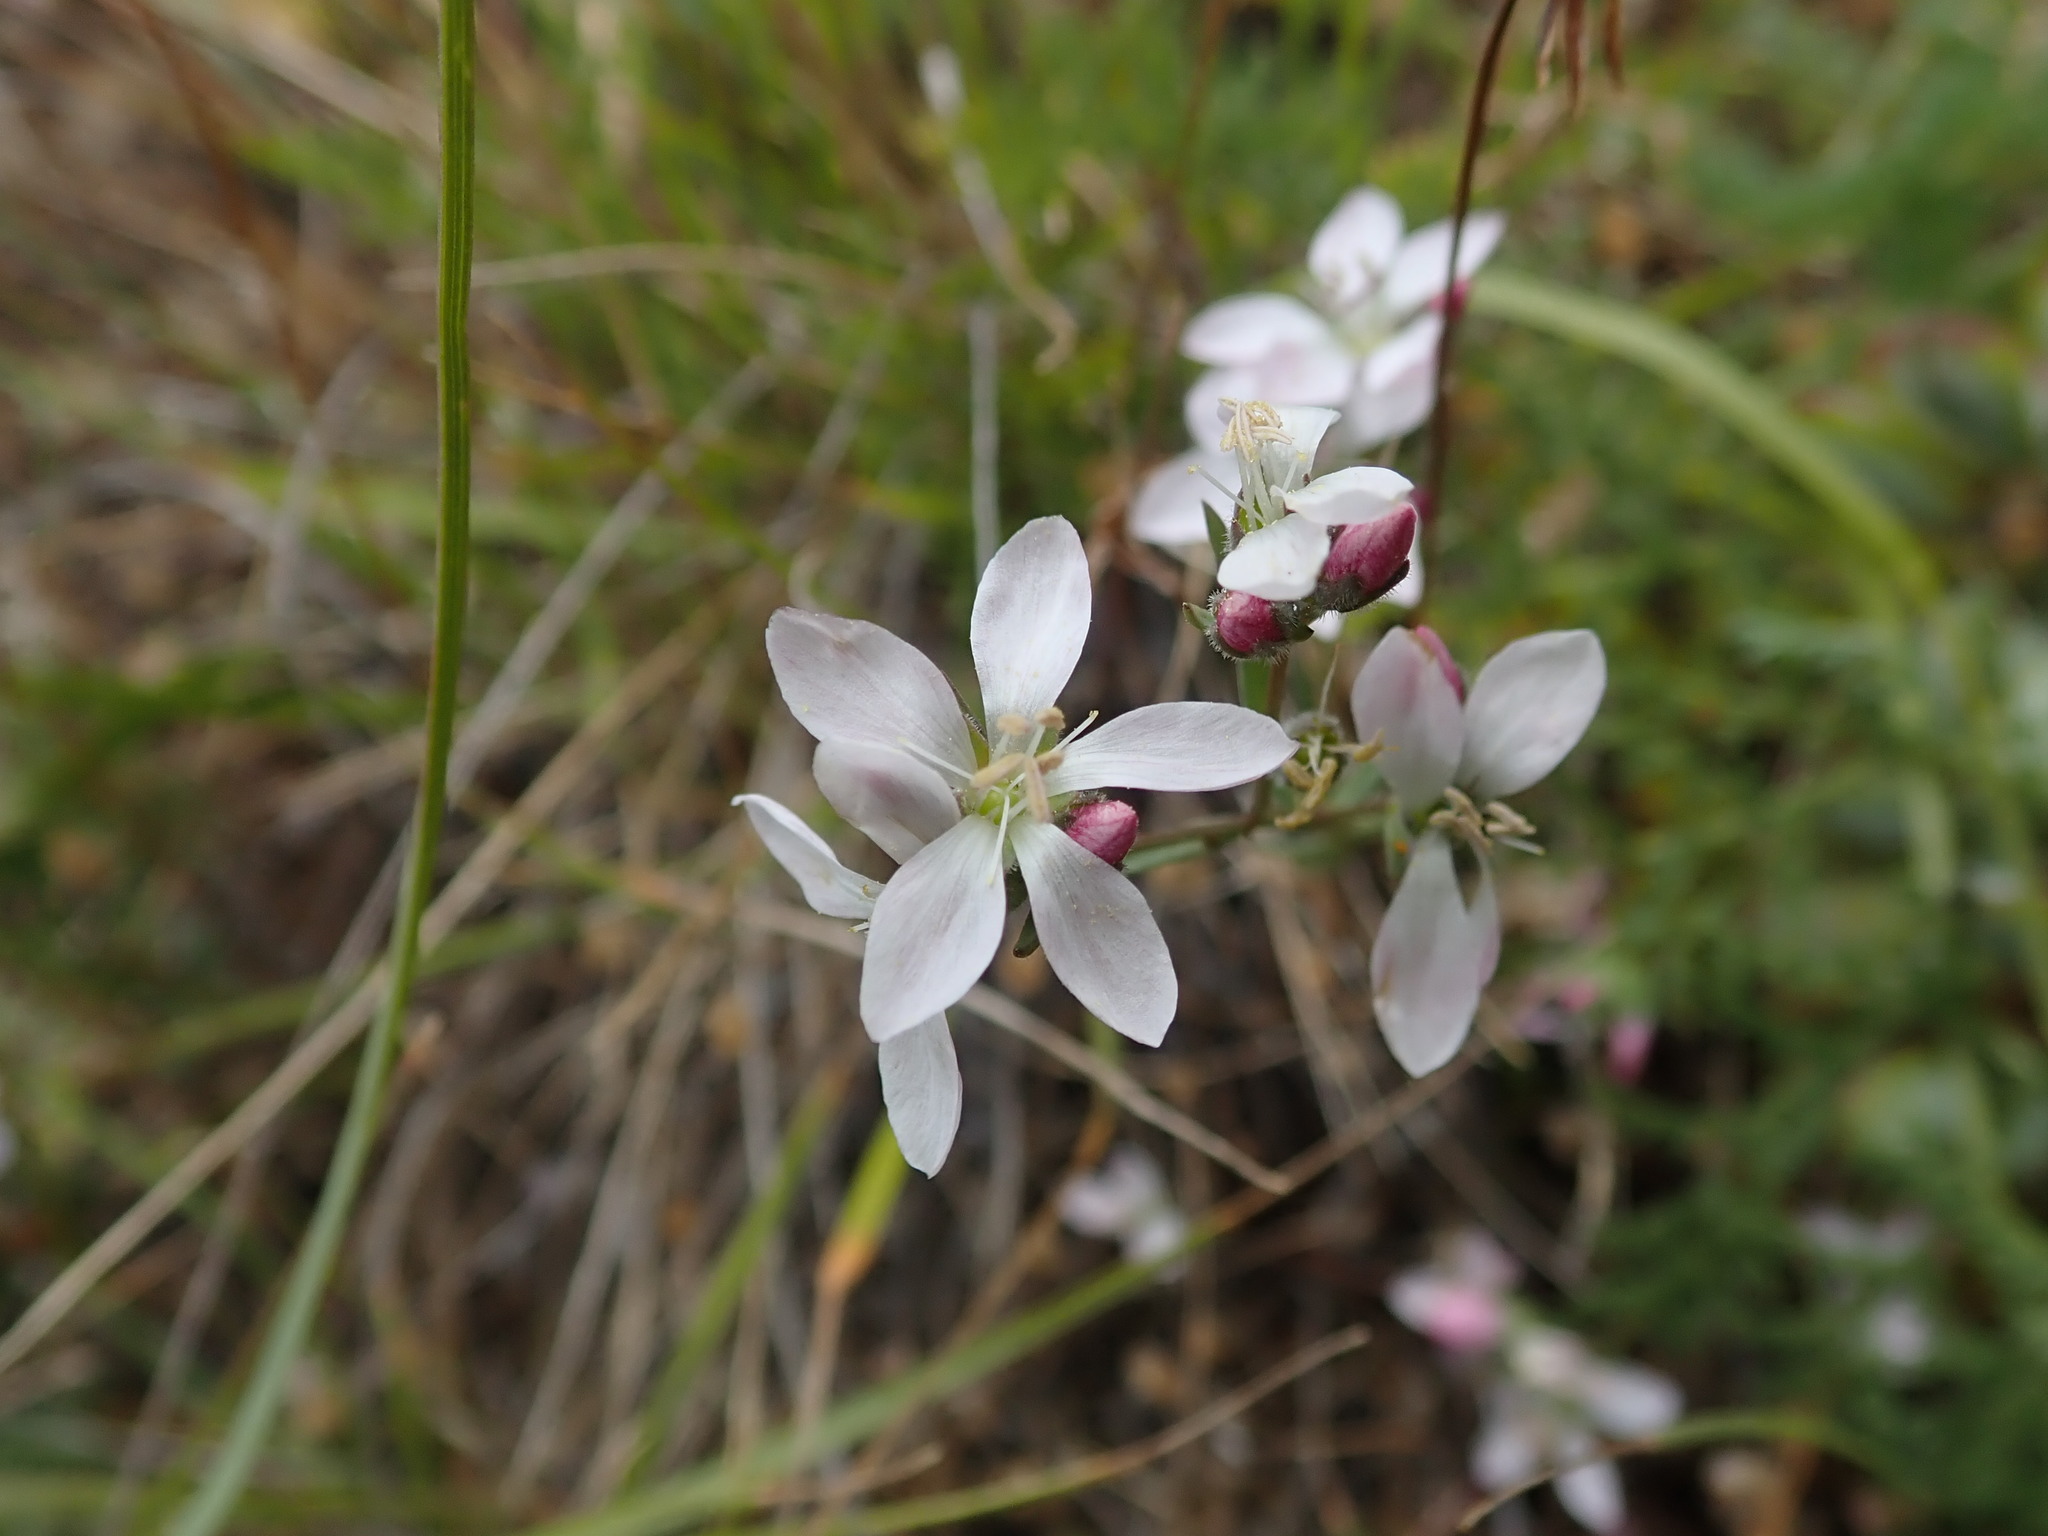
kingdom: Plantae
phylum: Tracheophyta
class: Magnoliopsida
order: Malpighiales
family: Linaceae
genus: Hesperolinon
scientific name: Hesperolinon congestum
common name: Marin dwarf-flax
